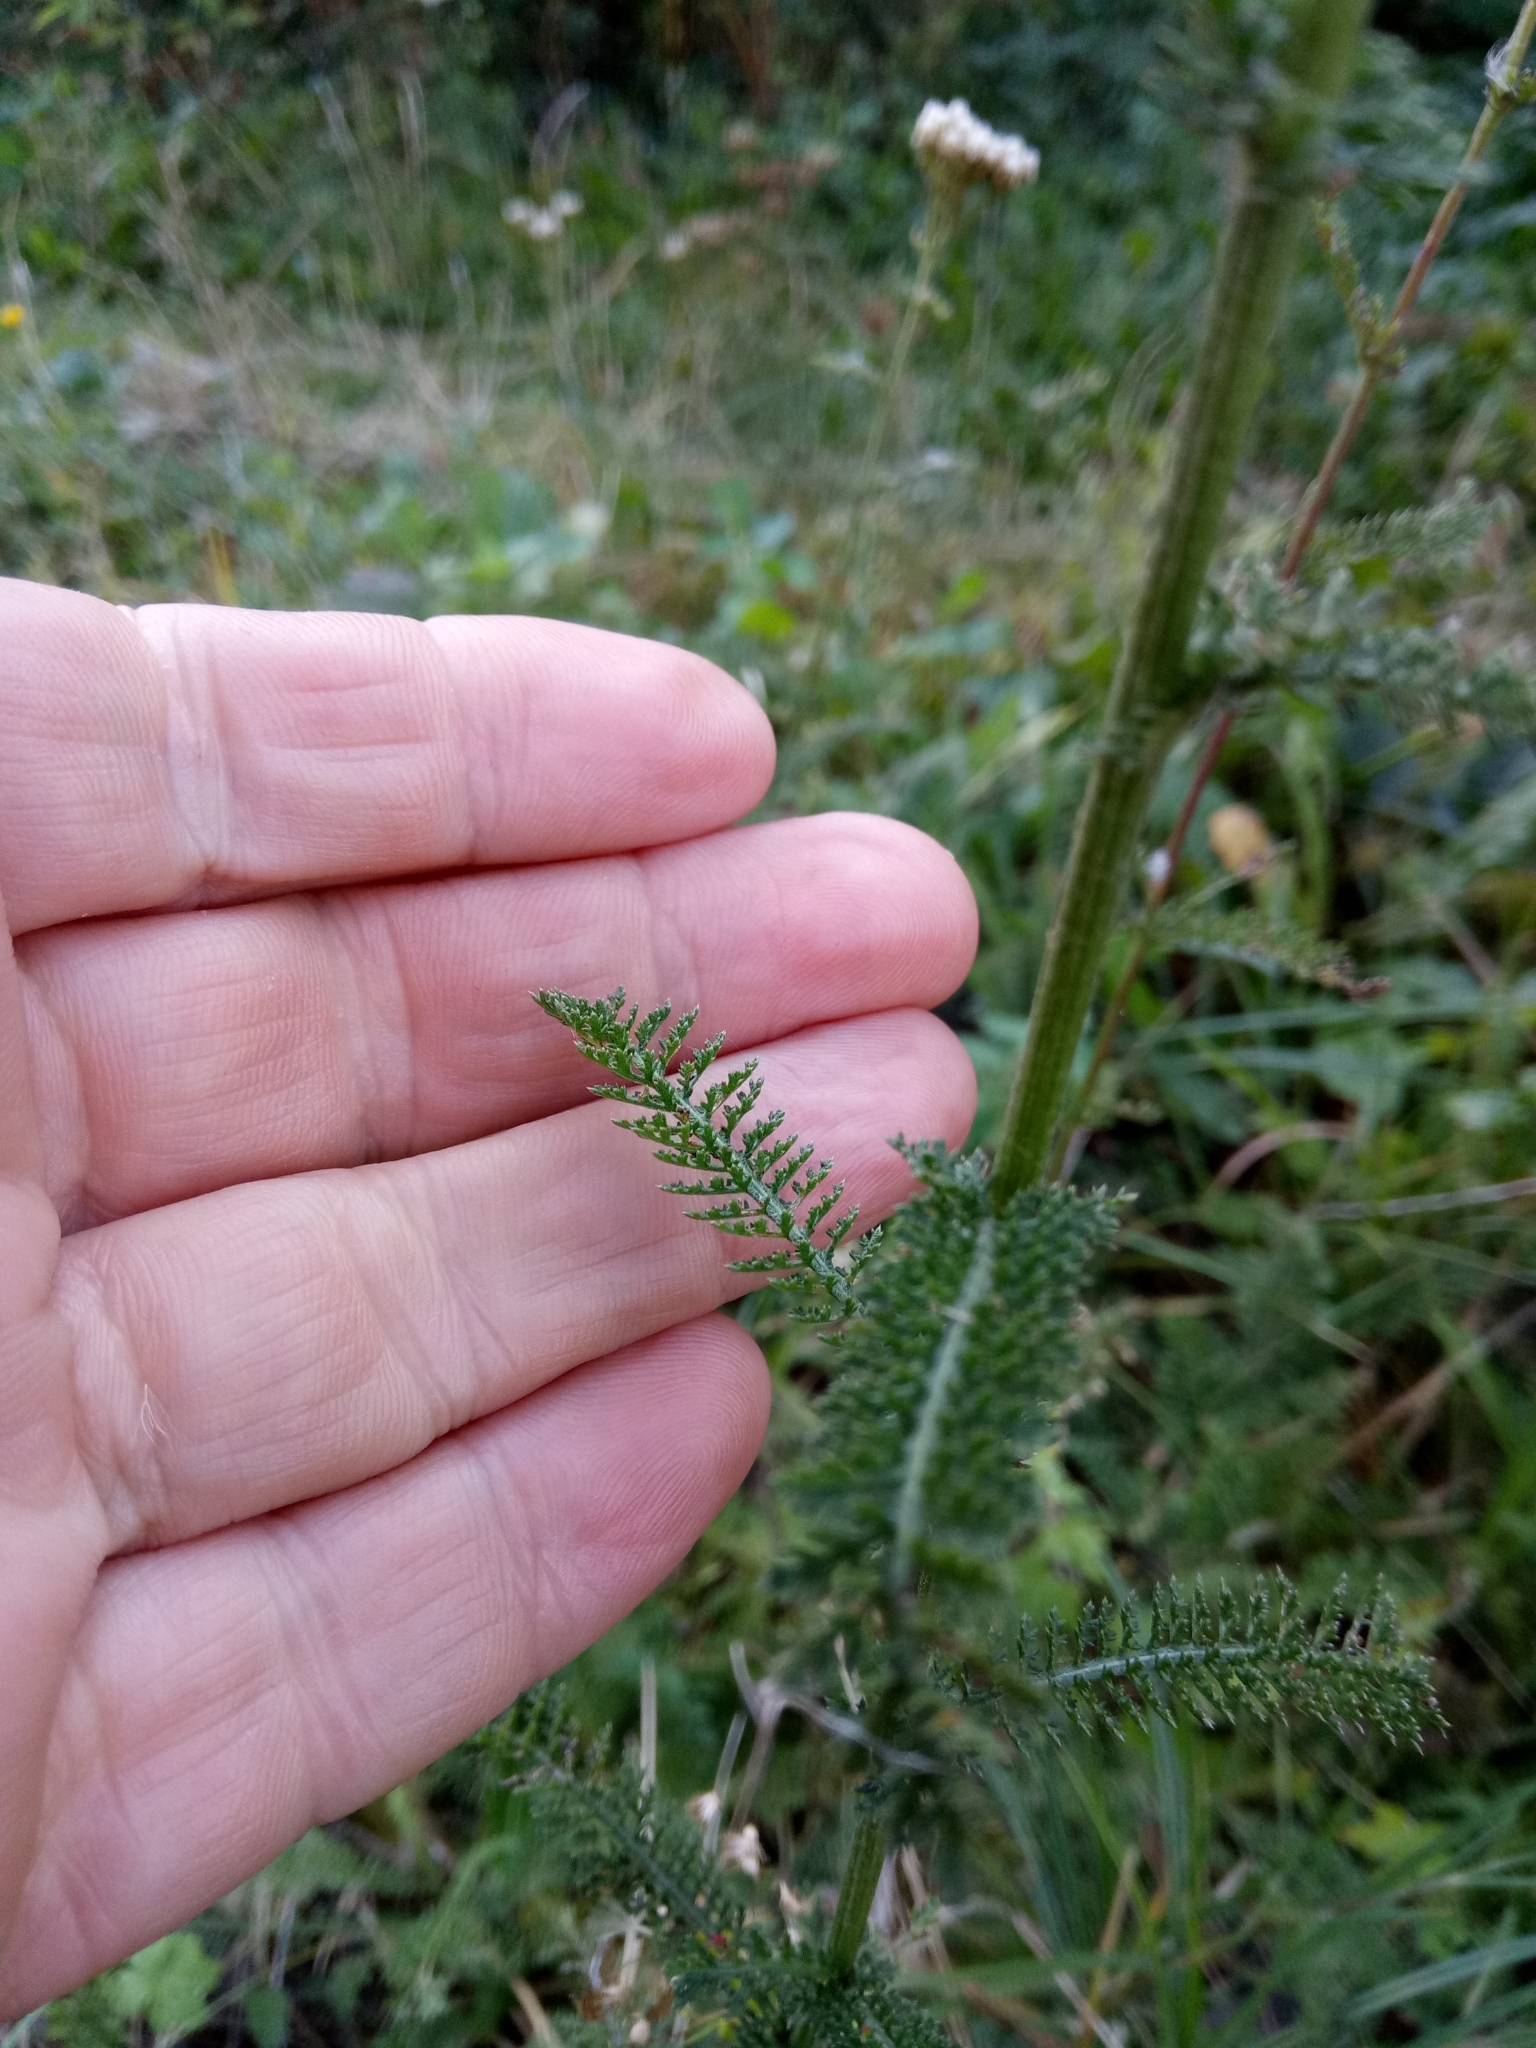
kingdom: Plantae
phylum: Tracheophyta
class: Magnoliopsida
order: Asterales
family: Asteraceae
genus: Achillea
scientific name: Achillea millefolium
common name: Yarrow
